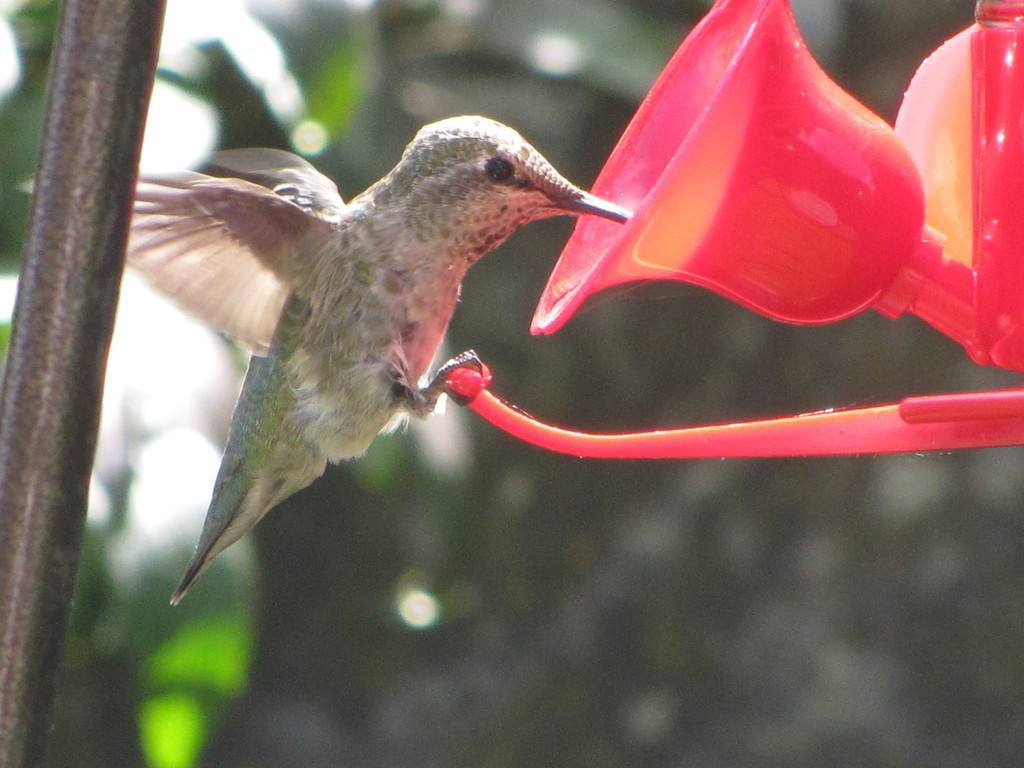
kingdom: Animalia
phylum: Chordata
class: Aves
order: Apodiformes
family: Trochilidae
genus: Calypte
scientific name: Calypte anna
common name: Anna's hummingbird
